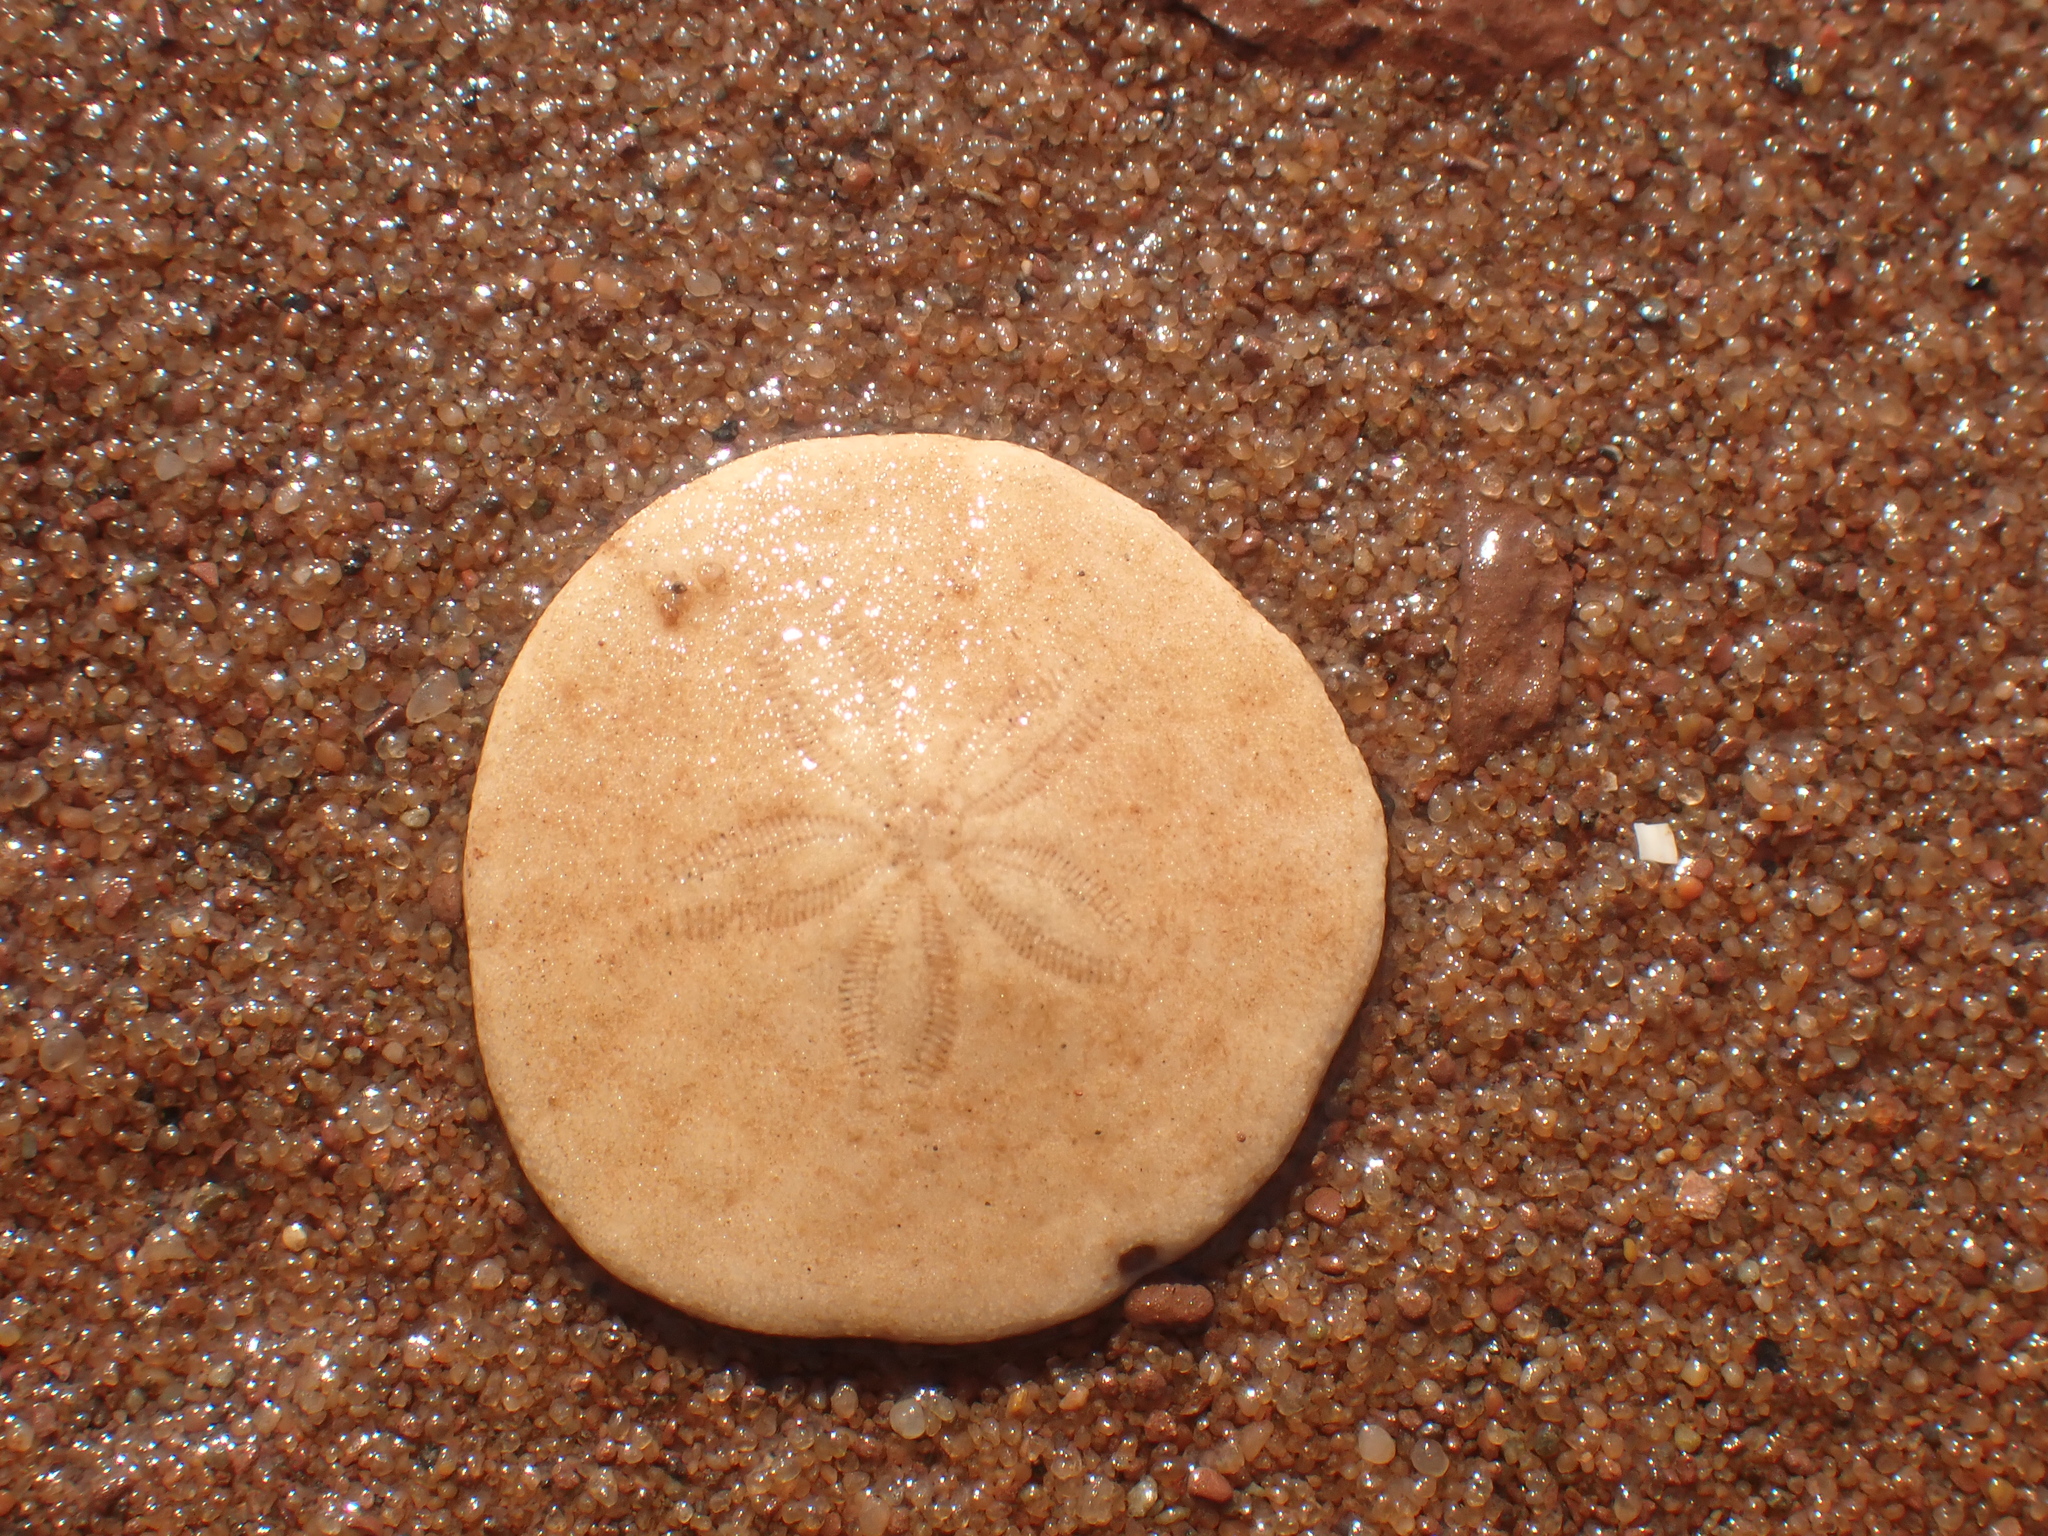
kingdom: Animalia
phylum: Echinodermata
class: Echinoidea
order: Echinolampadacea
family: Echinarachniidae
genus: Echinarachnius
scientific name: Echinarachnius parma
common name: Common sand dollar
